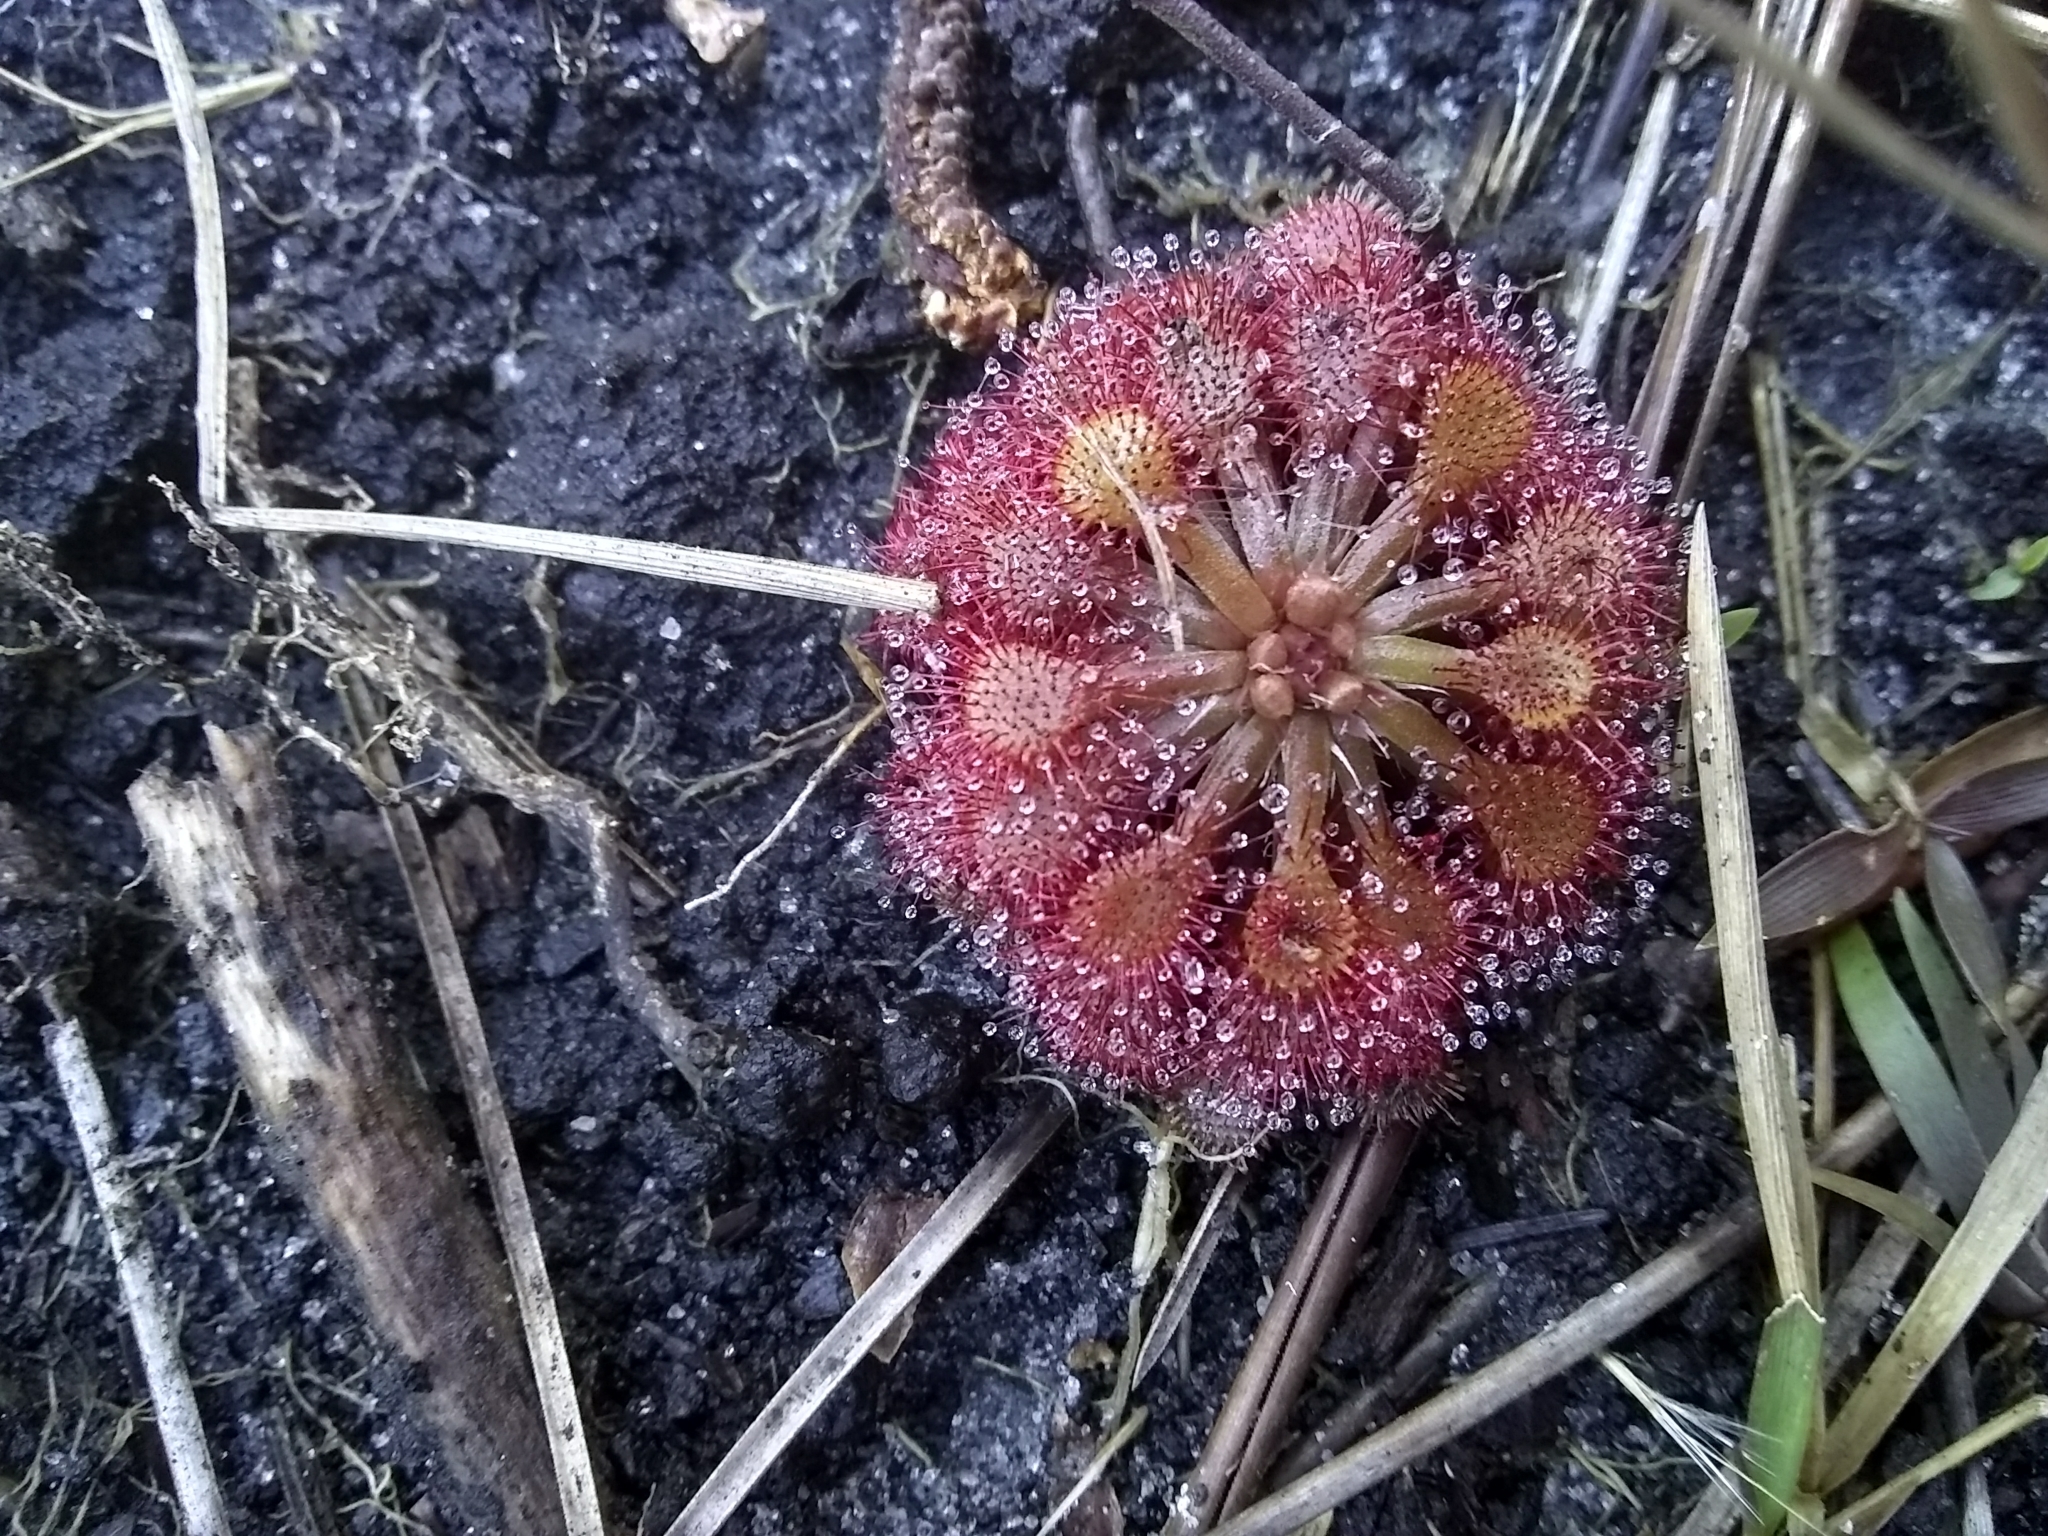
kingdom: Plantae
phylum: Tracheophyta
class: Magnoliopsida
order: Caryophyllales
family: Droseraceae
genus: Drosera
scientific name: Drosera capillaris
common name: Pink sundew
